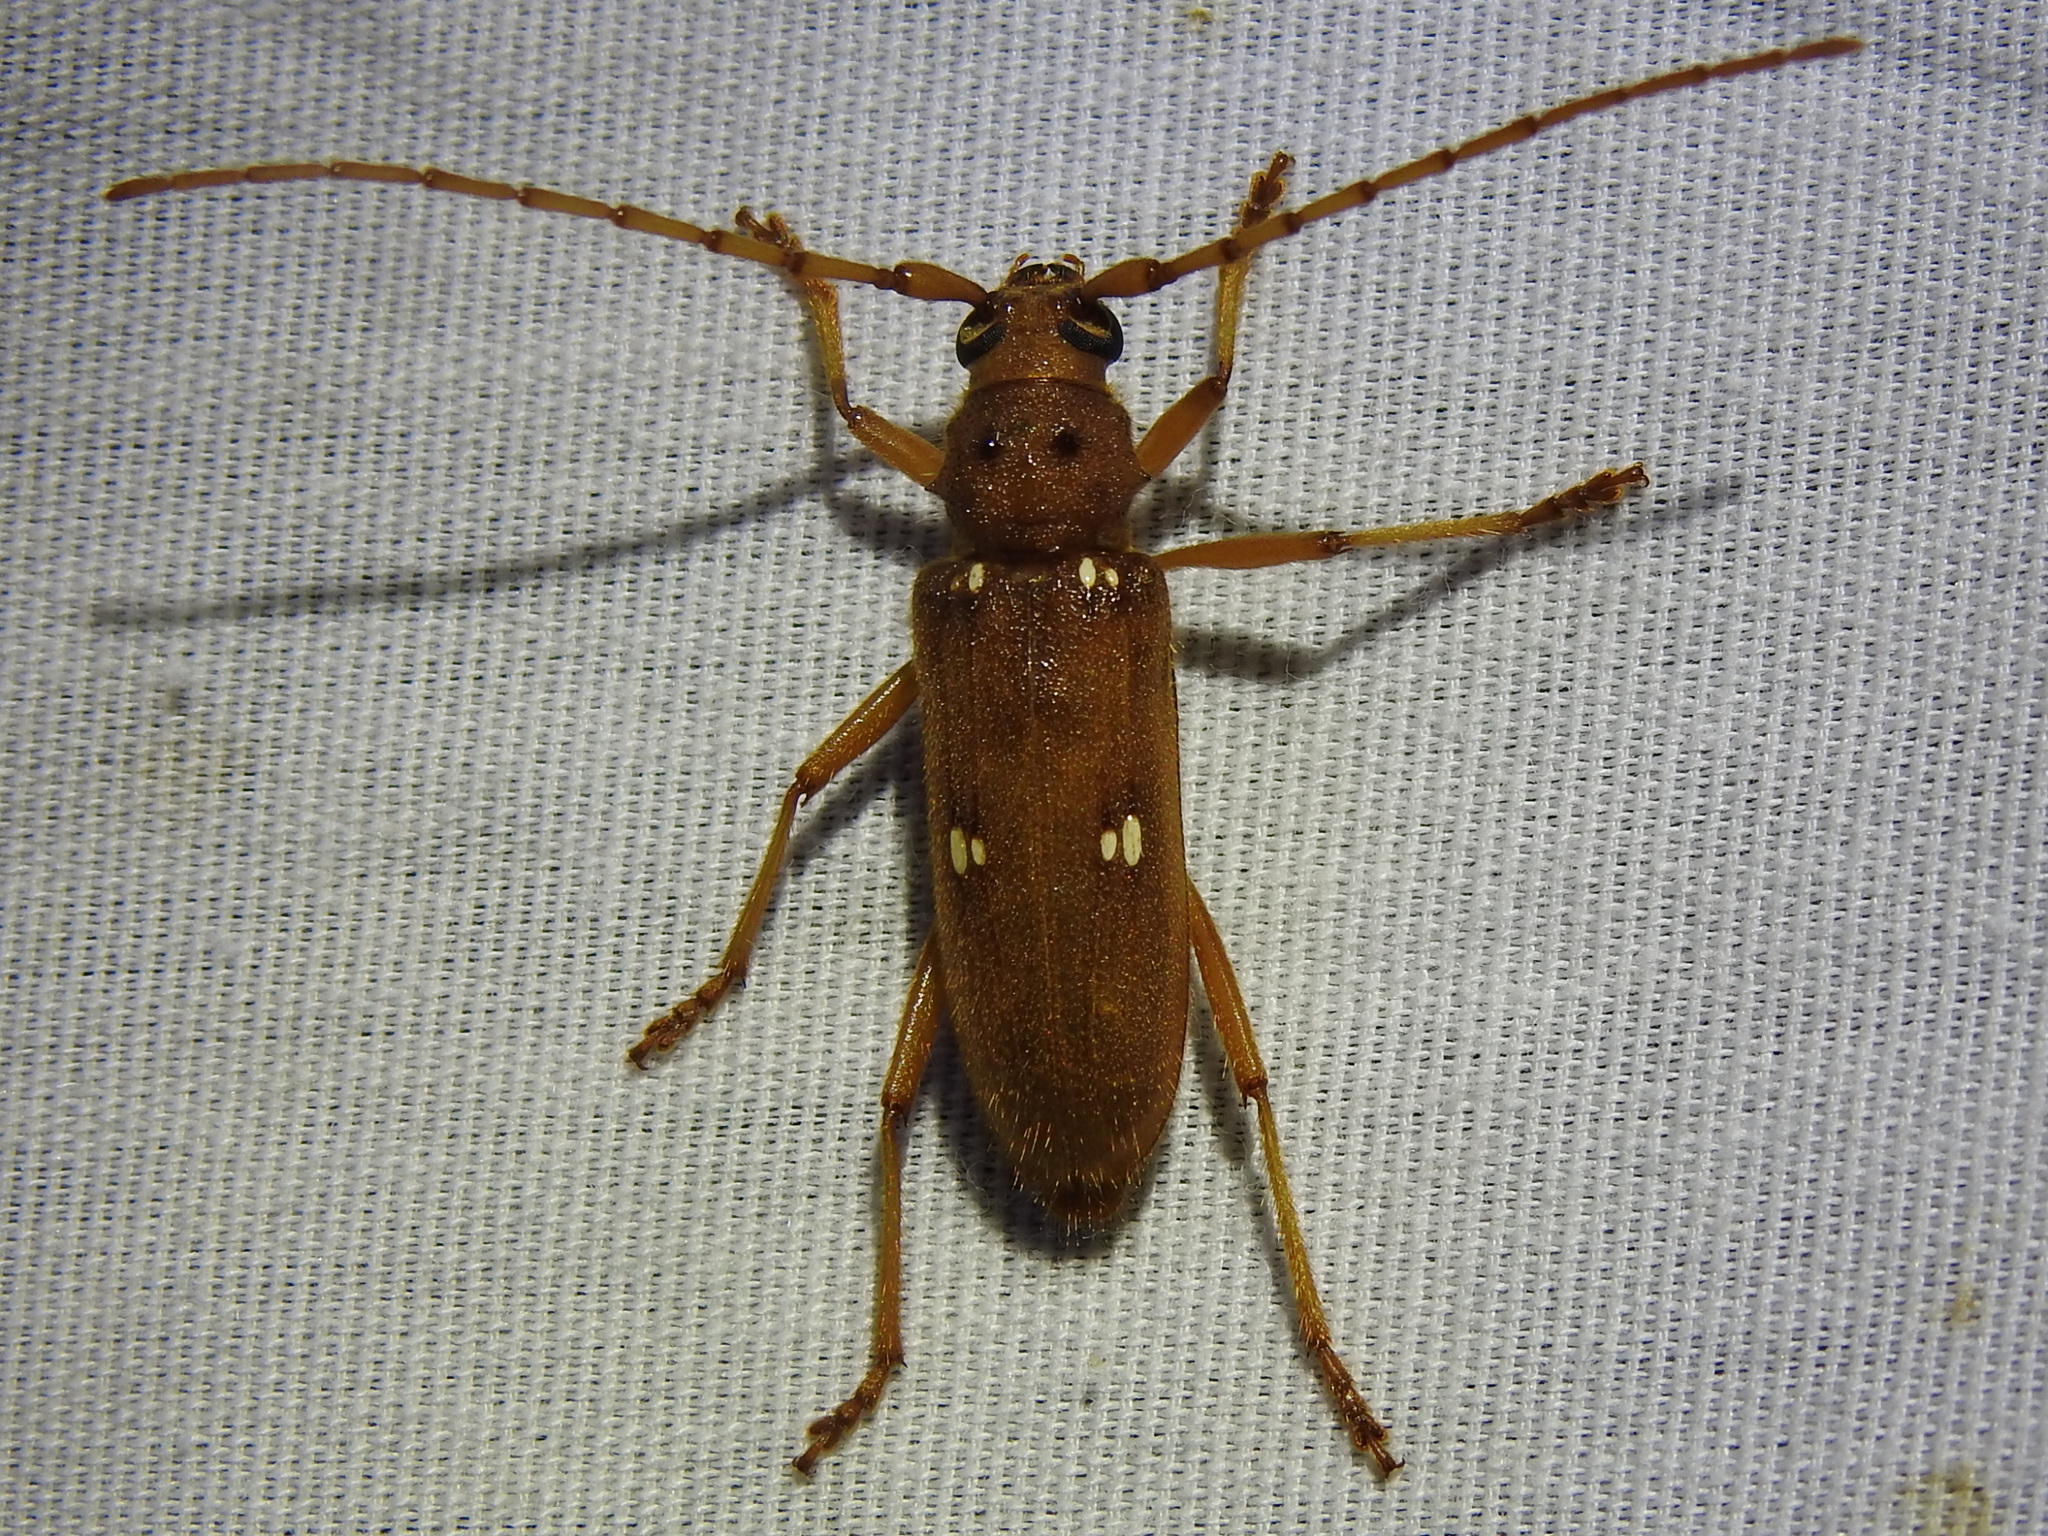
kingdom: Animalia
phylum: Arthropoda
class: Insecta
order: Coleoptera
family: Cerambycidae
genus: Eburia
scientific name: Eburia haldemani
